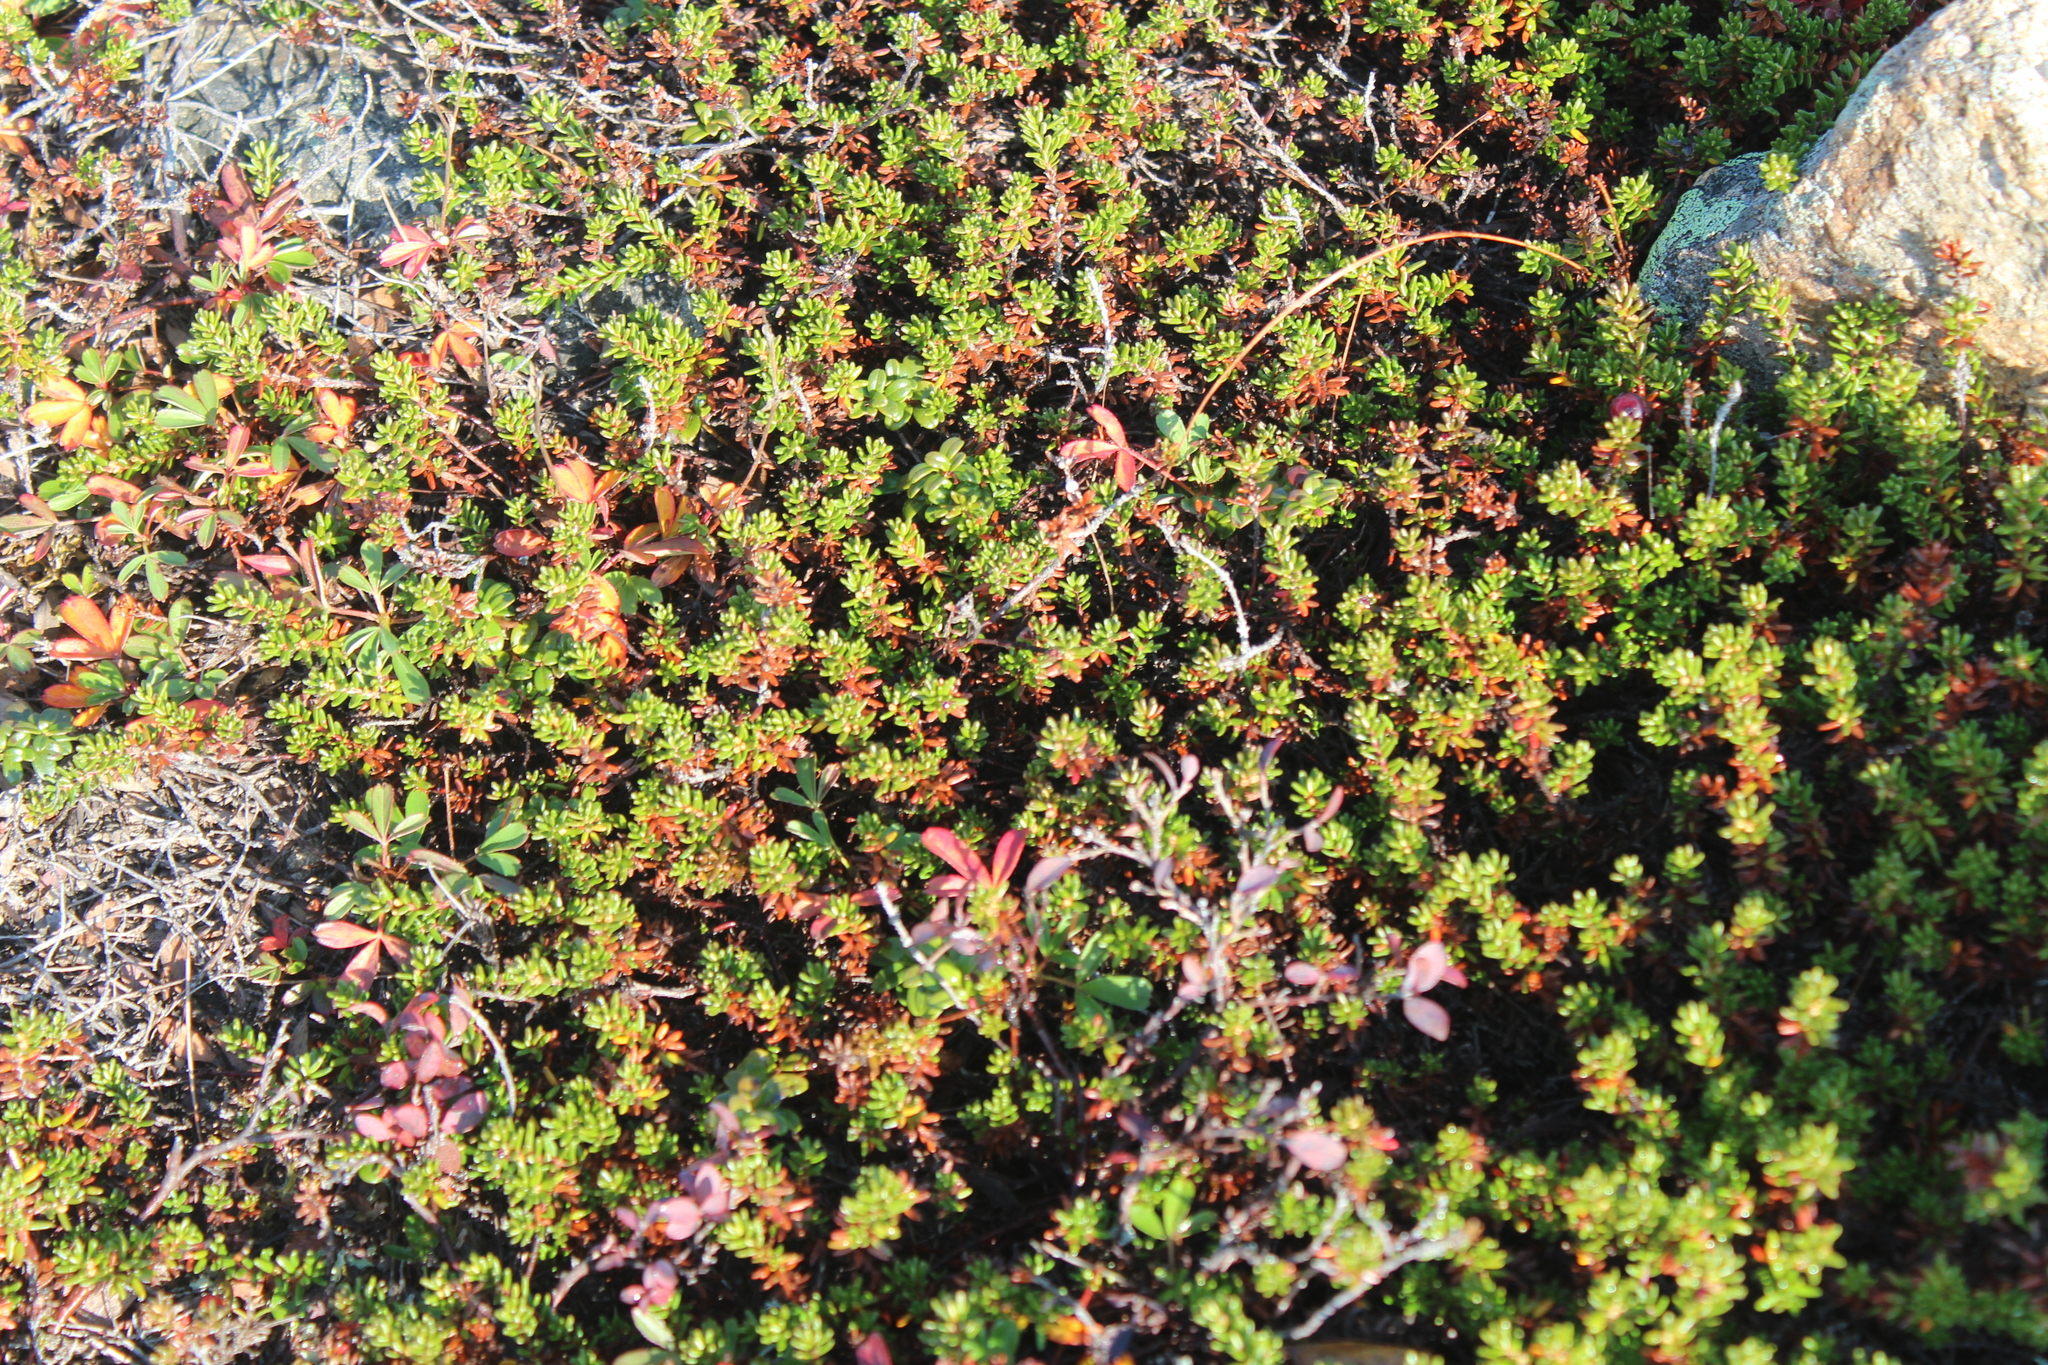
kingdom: Plantae
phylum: Tracheophyta
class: Magnoliopsida
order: Ericales
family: Ericaceae
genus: Empetrum
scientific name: Empetrum nigrum
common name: Black crowberry
